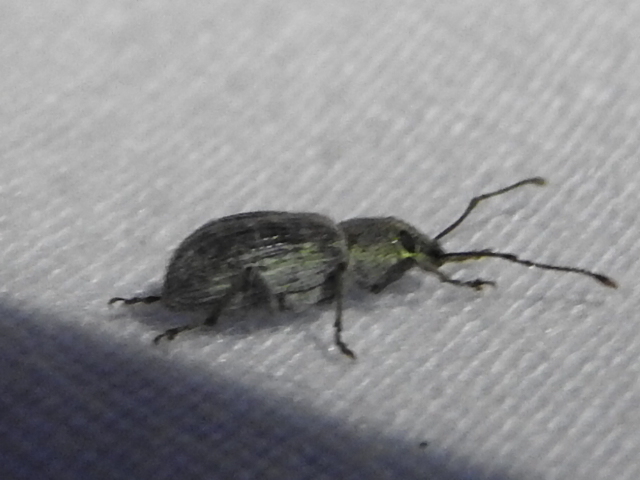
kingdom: Animalia
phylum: Arthropoda
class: Insecta
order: Coleoptera
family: Curculionidae
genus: Cyrtepistomus
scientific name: Cyrtepistomus castaneus
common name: Weevil
